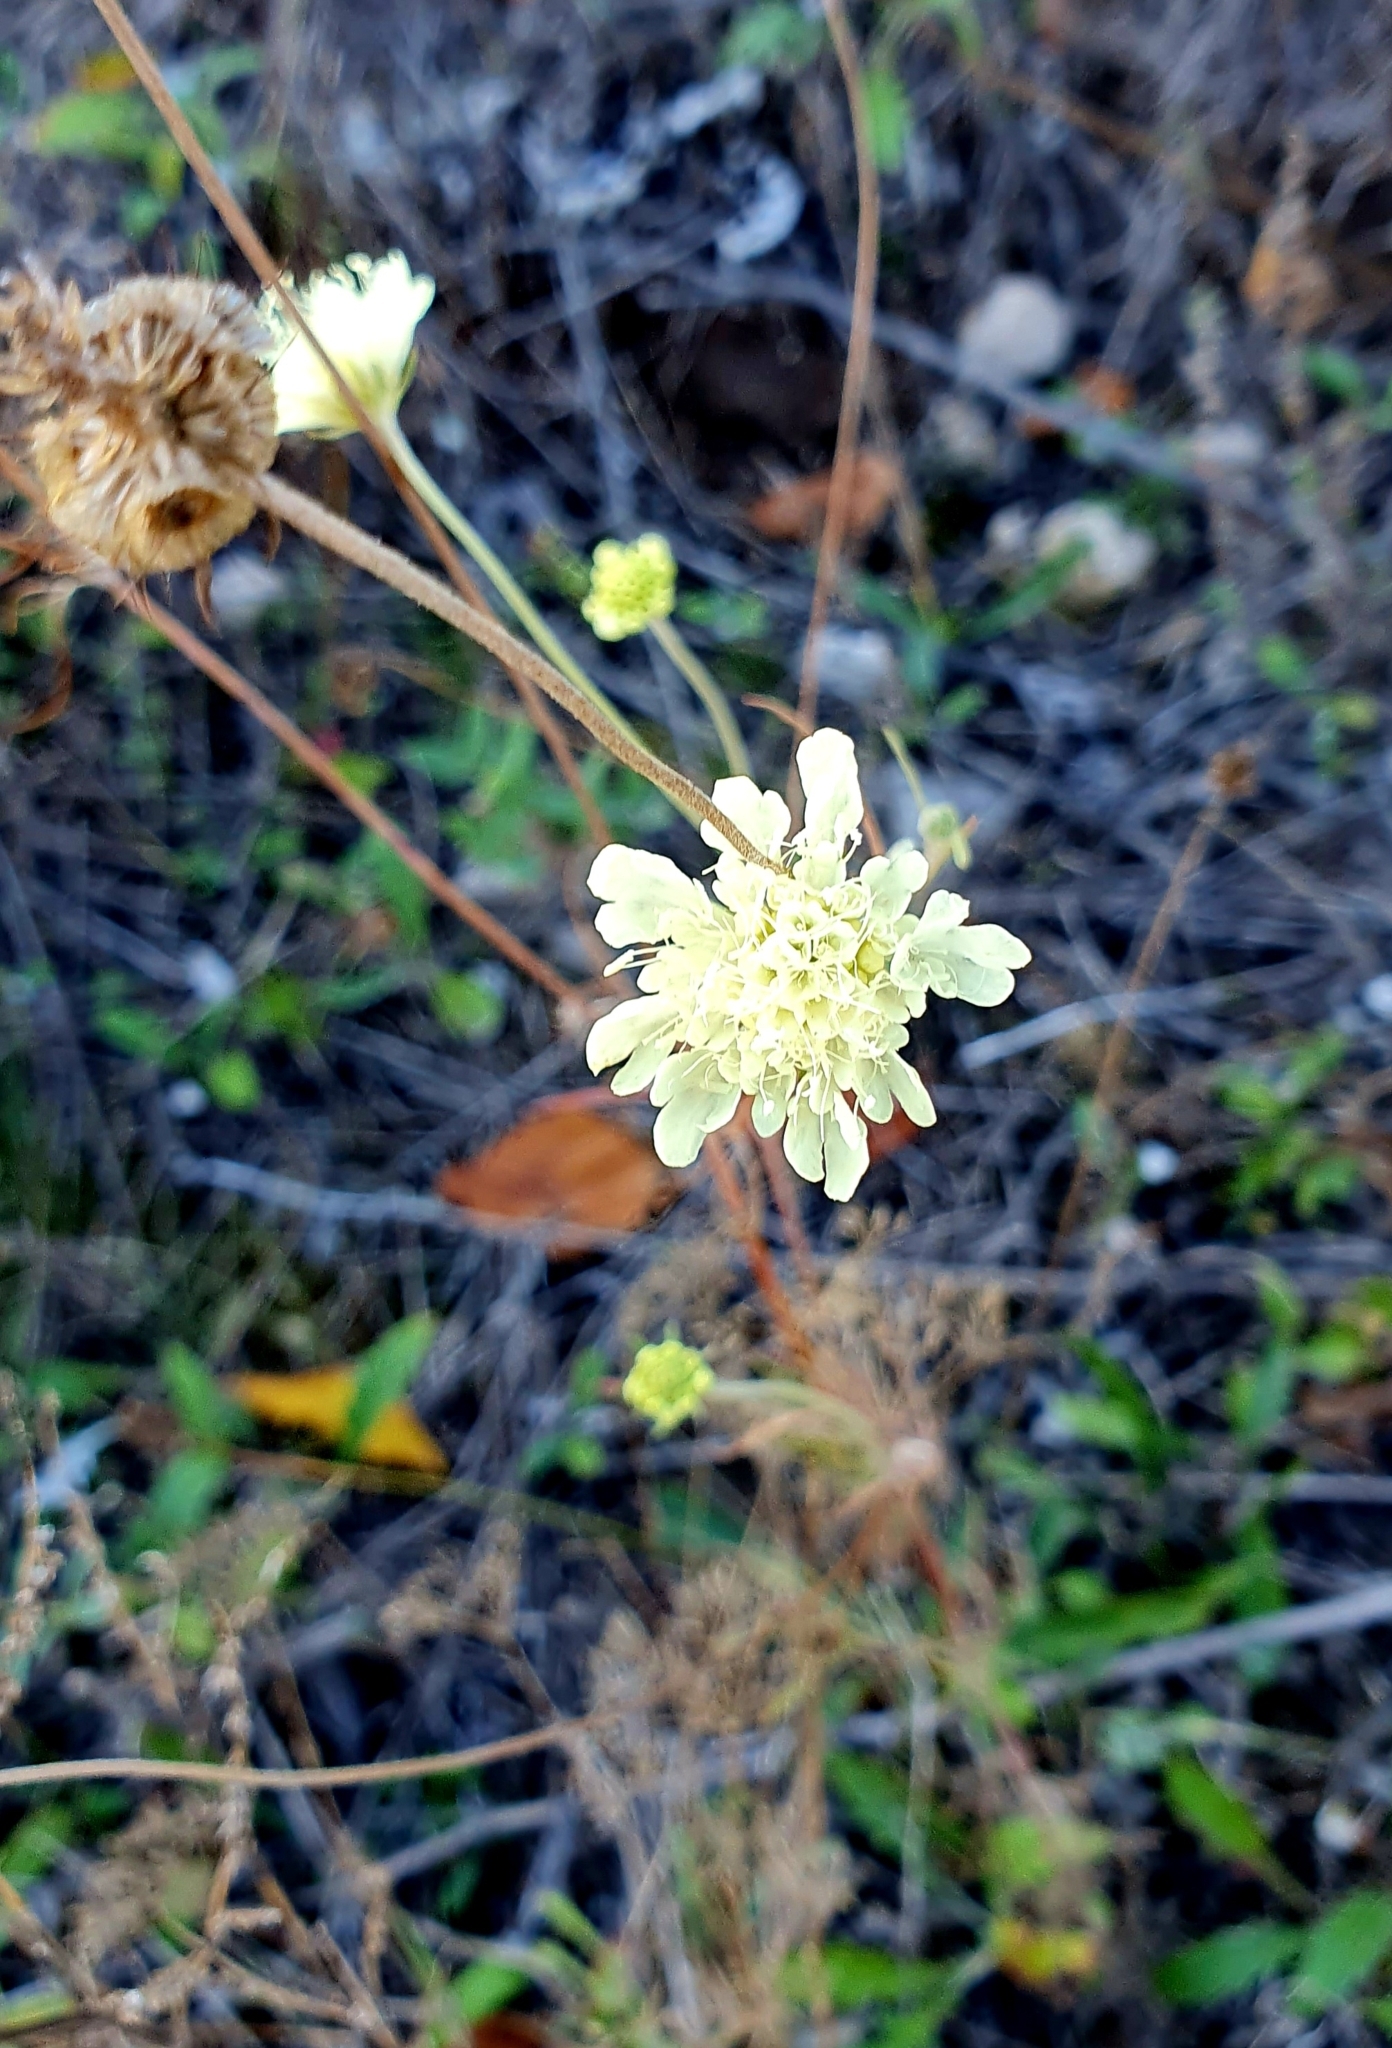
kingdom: Plantae
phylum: Tracheophyta
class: Magnoliopsida
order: Dipsacales
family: Caprifoliaceae
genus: Scabiosa
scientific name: Scabiosa ochroleuca
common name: Cream pincushions
